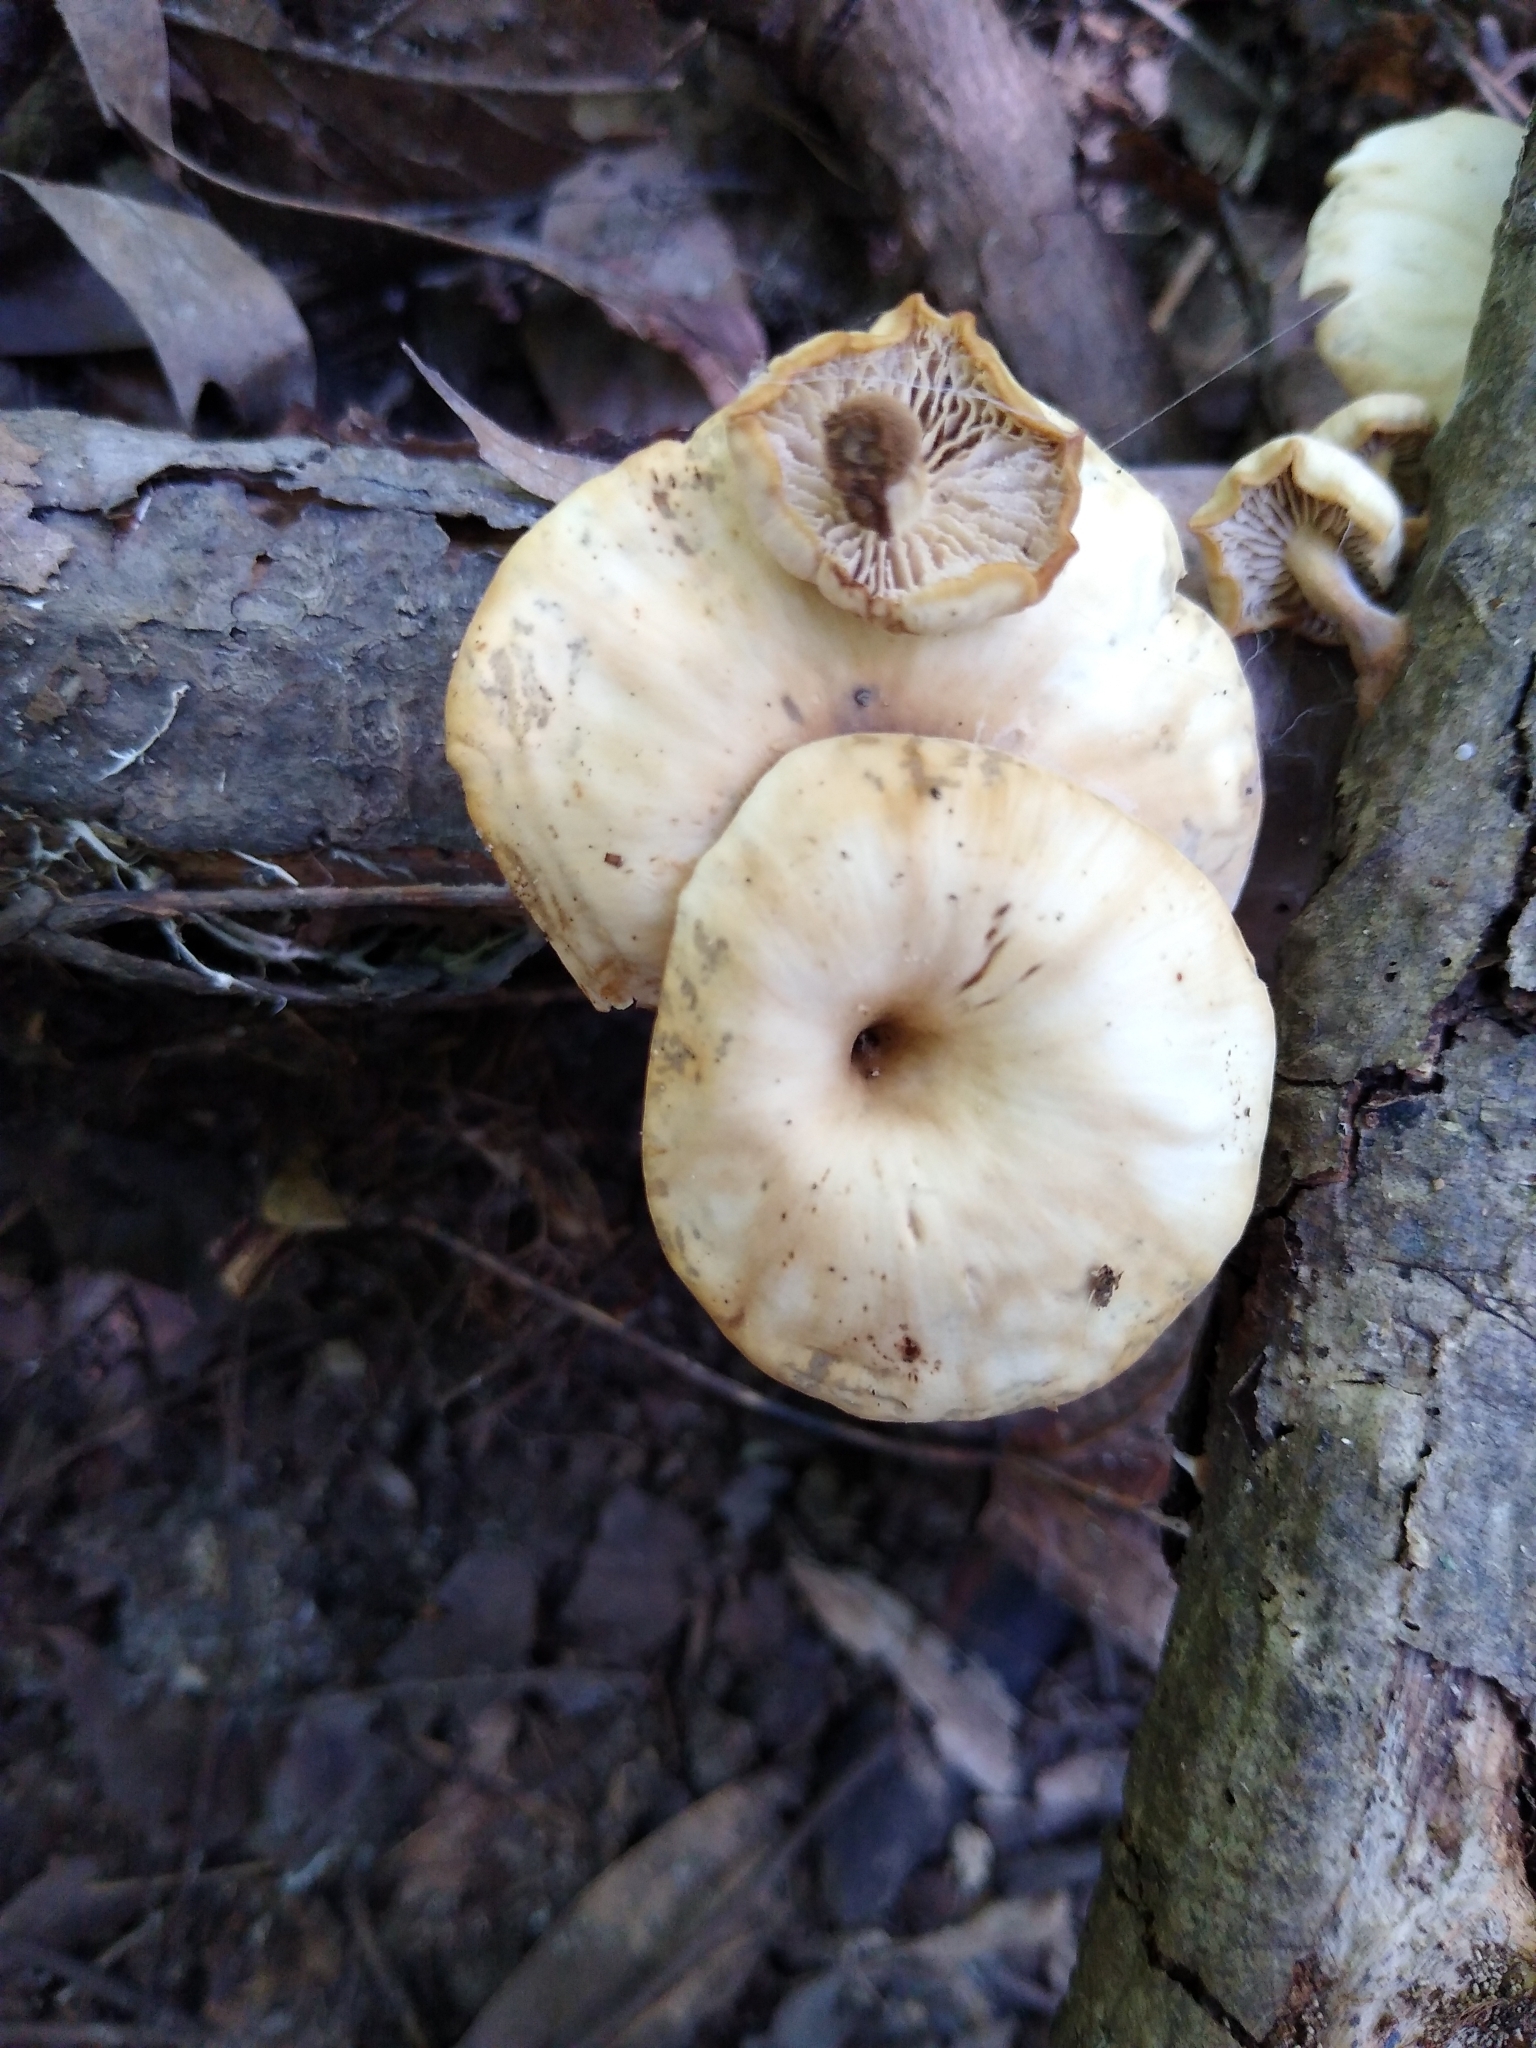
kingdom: Fungi
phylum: Basidiomycota
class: Agaricomycetes
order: Russulales
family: Auriscalpiaceae
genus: Lentinellus
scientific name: Lentinellus subaustralis
